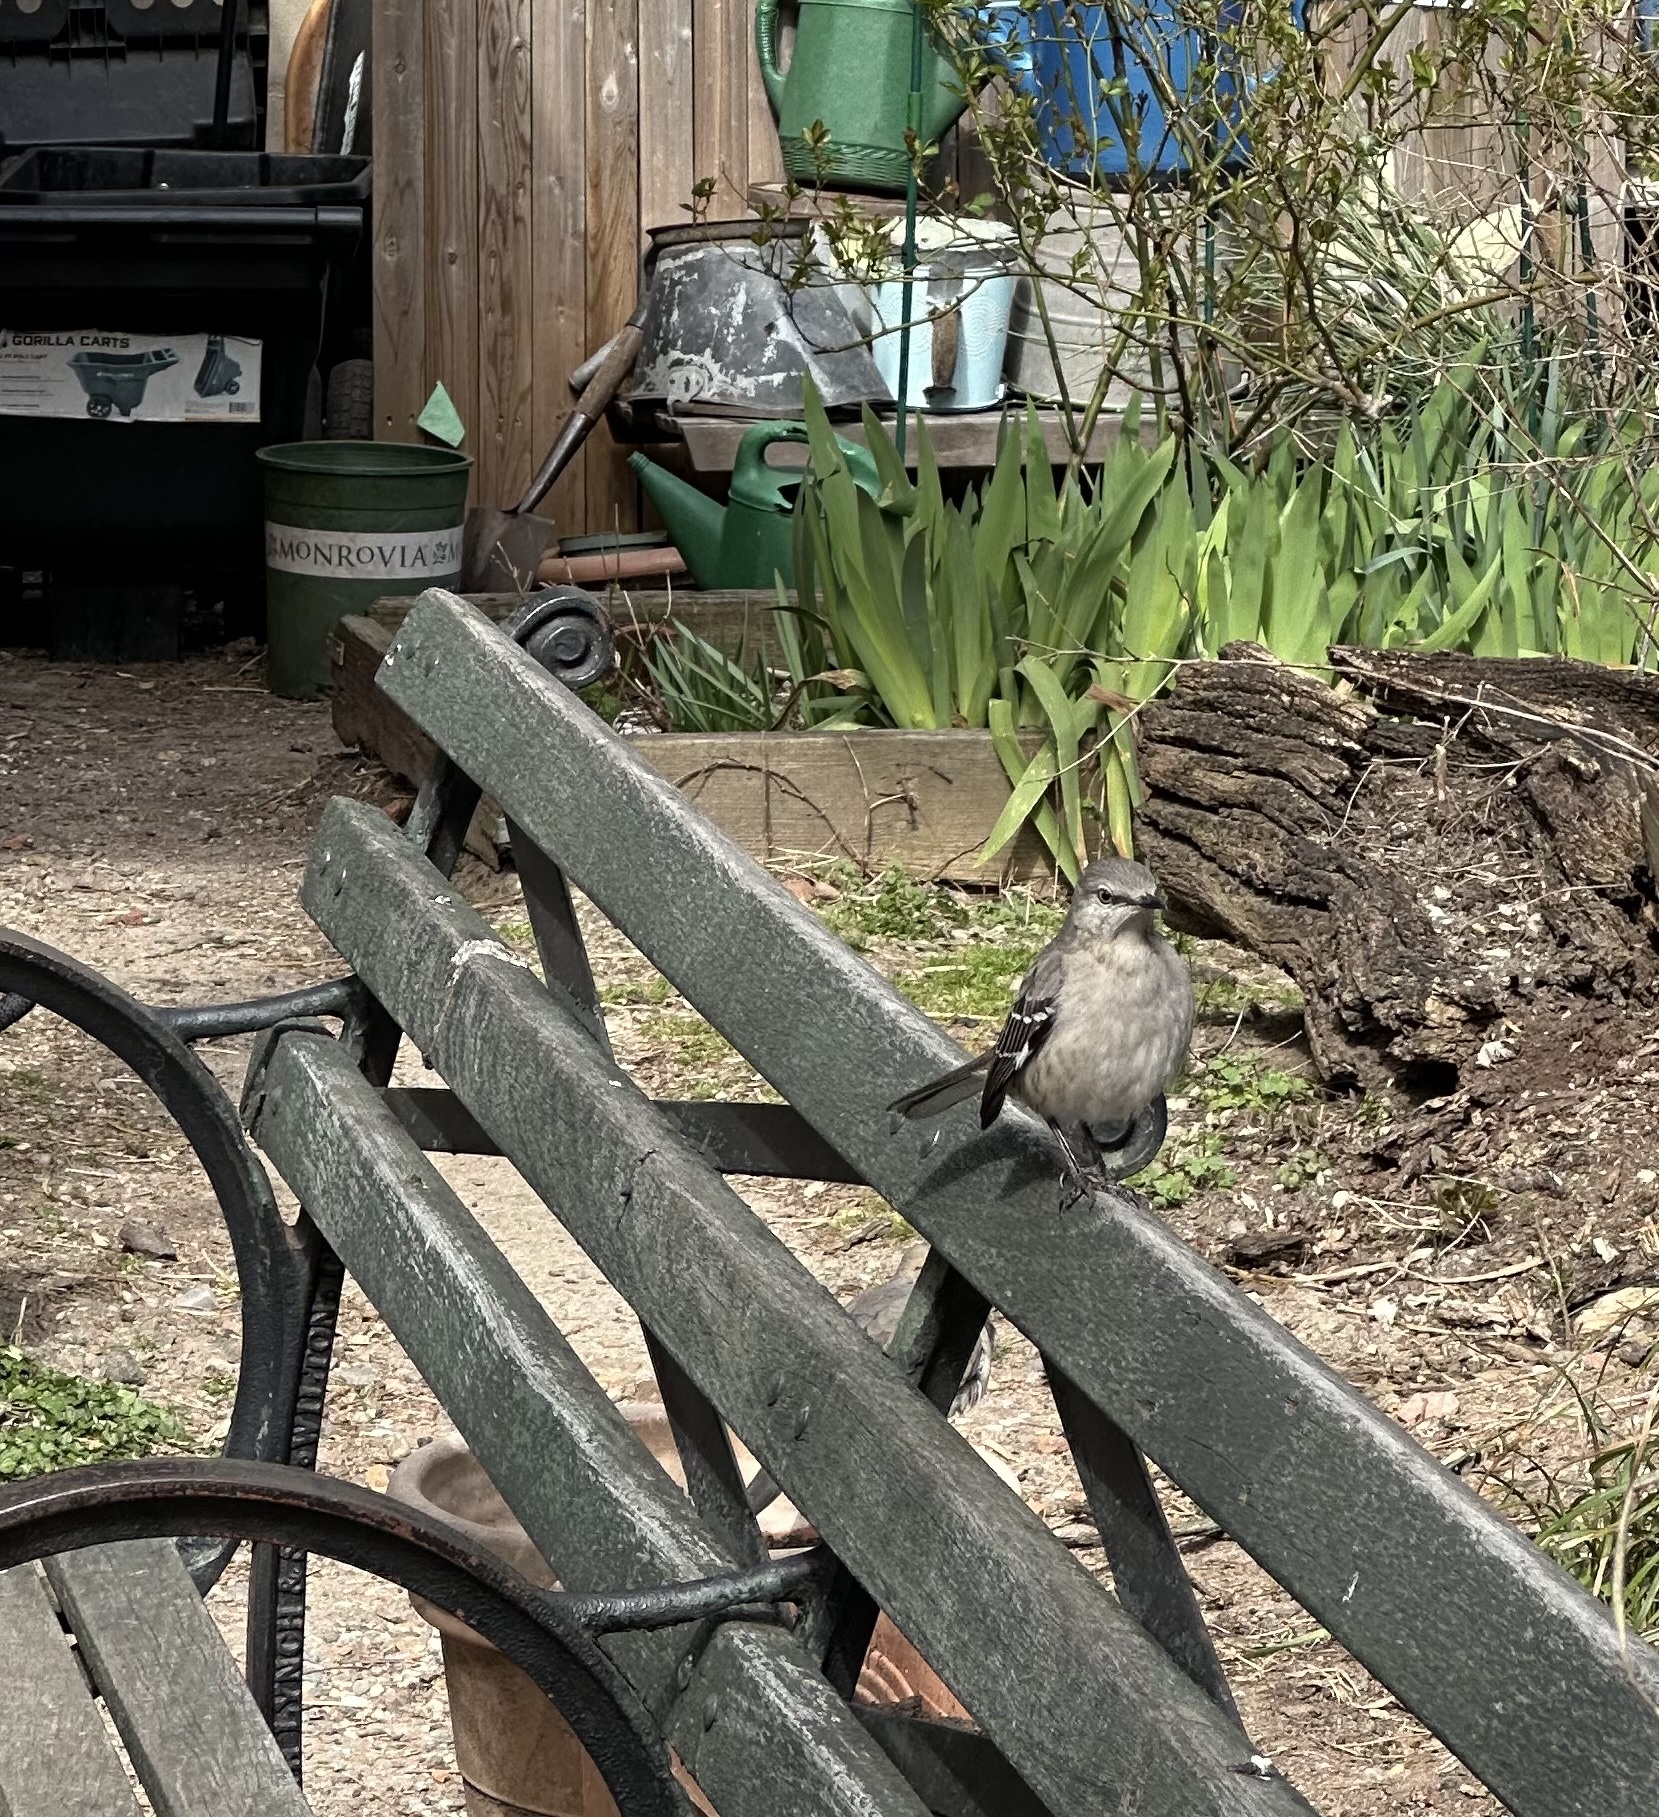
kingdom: Animalia
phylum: Chordata
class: Aves
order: Passeriformes
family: Mimidae
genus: Mimus
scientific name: Mimus polyglottos
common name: Northern mockingbird
